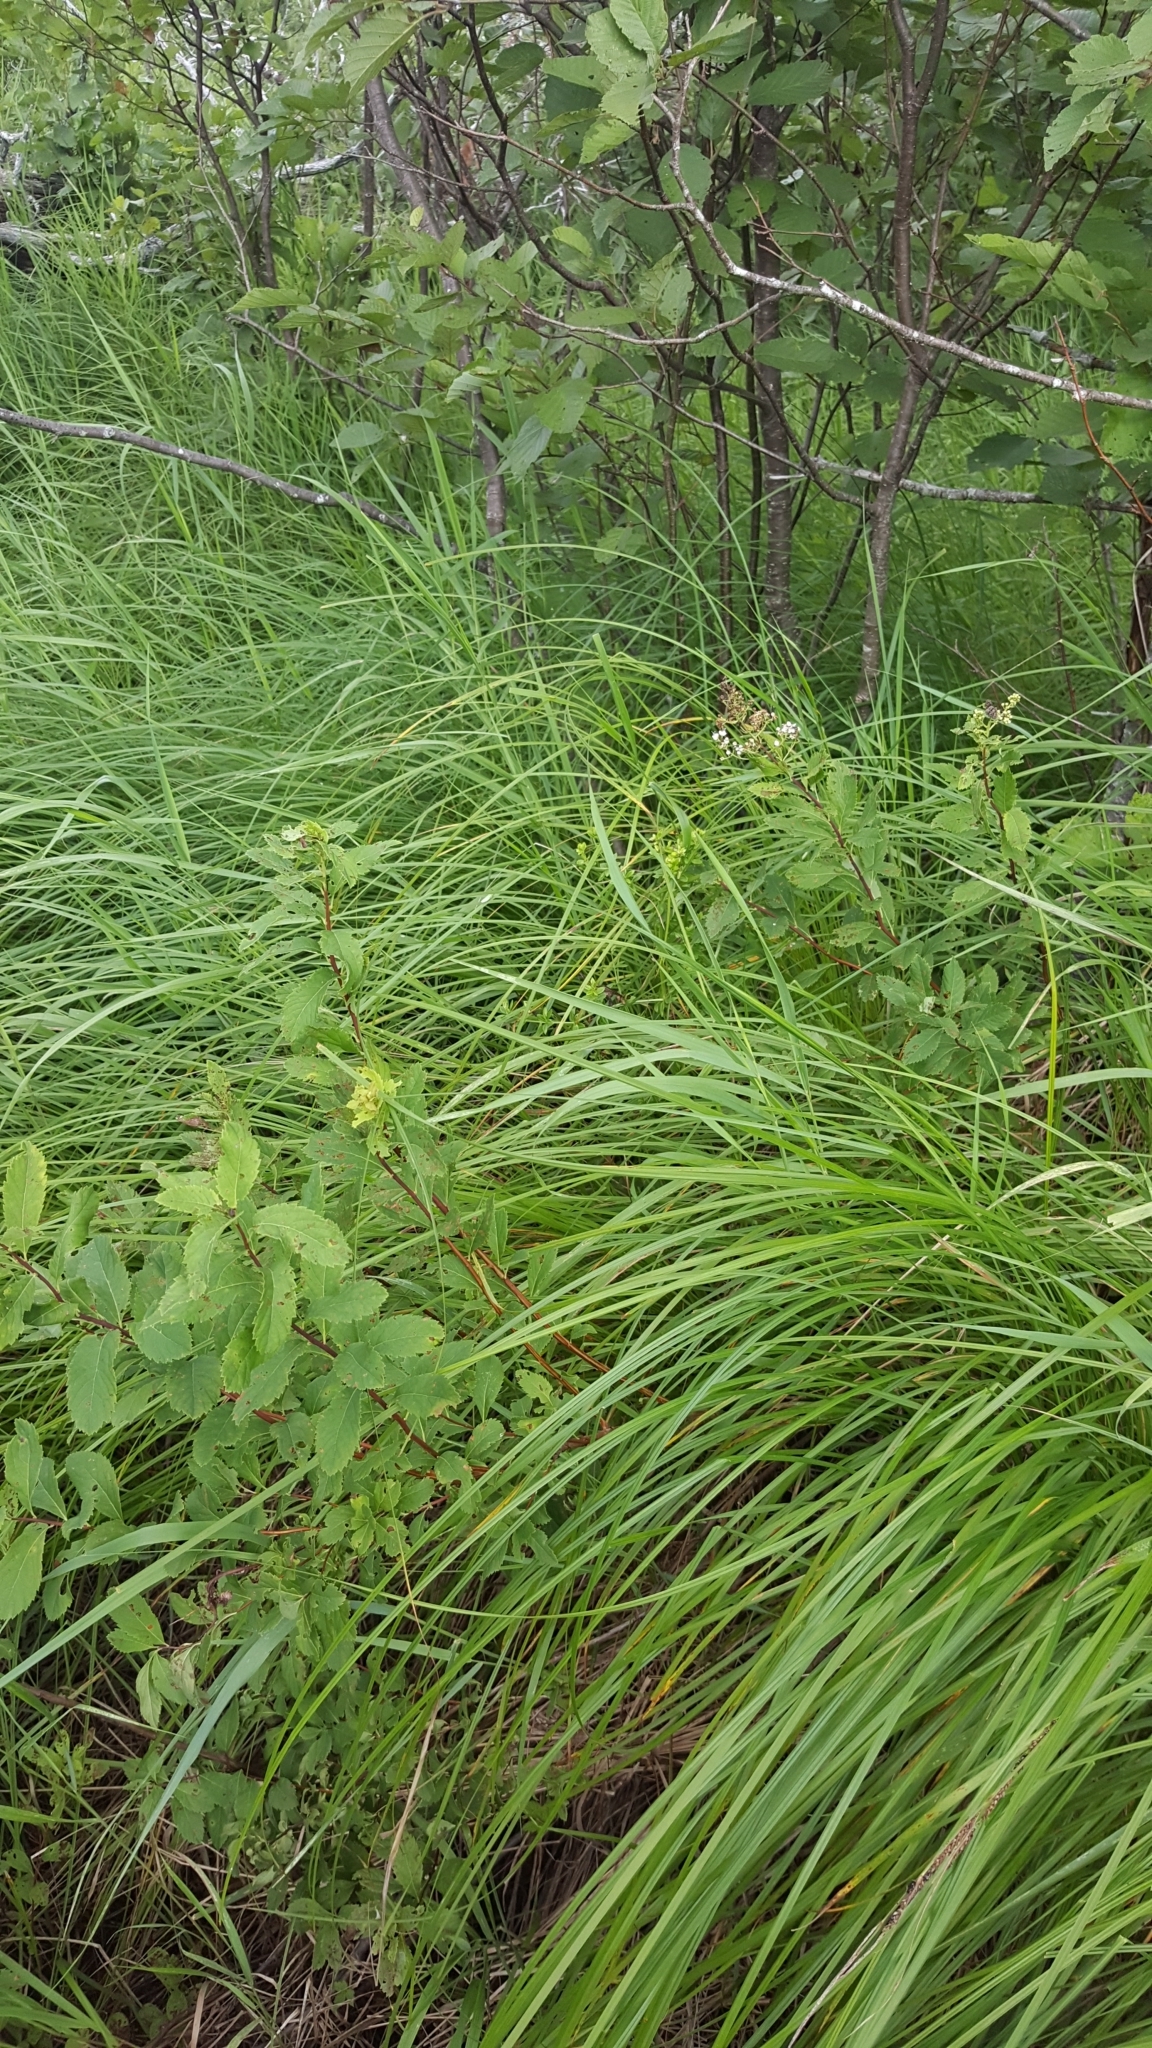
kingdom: Plantae
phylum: Tracheophyta
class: Magnoliopsida
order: Rosales
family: Rosaceae
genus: Spiraea
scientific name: Spiraea alba
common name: Pale bridewort
